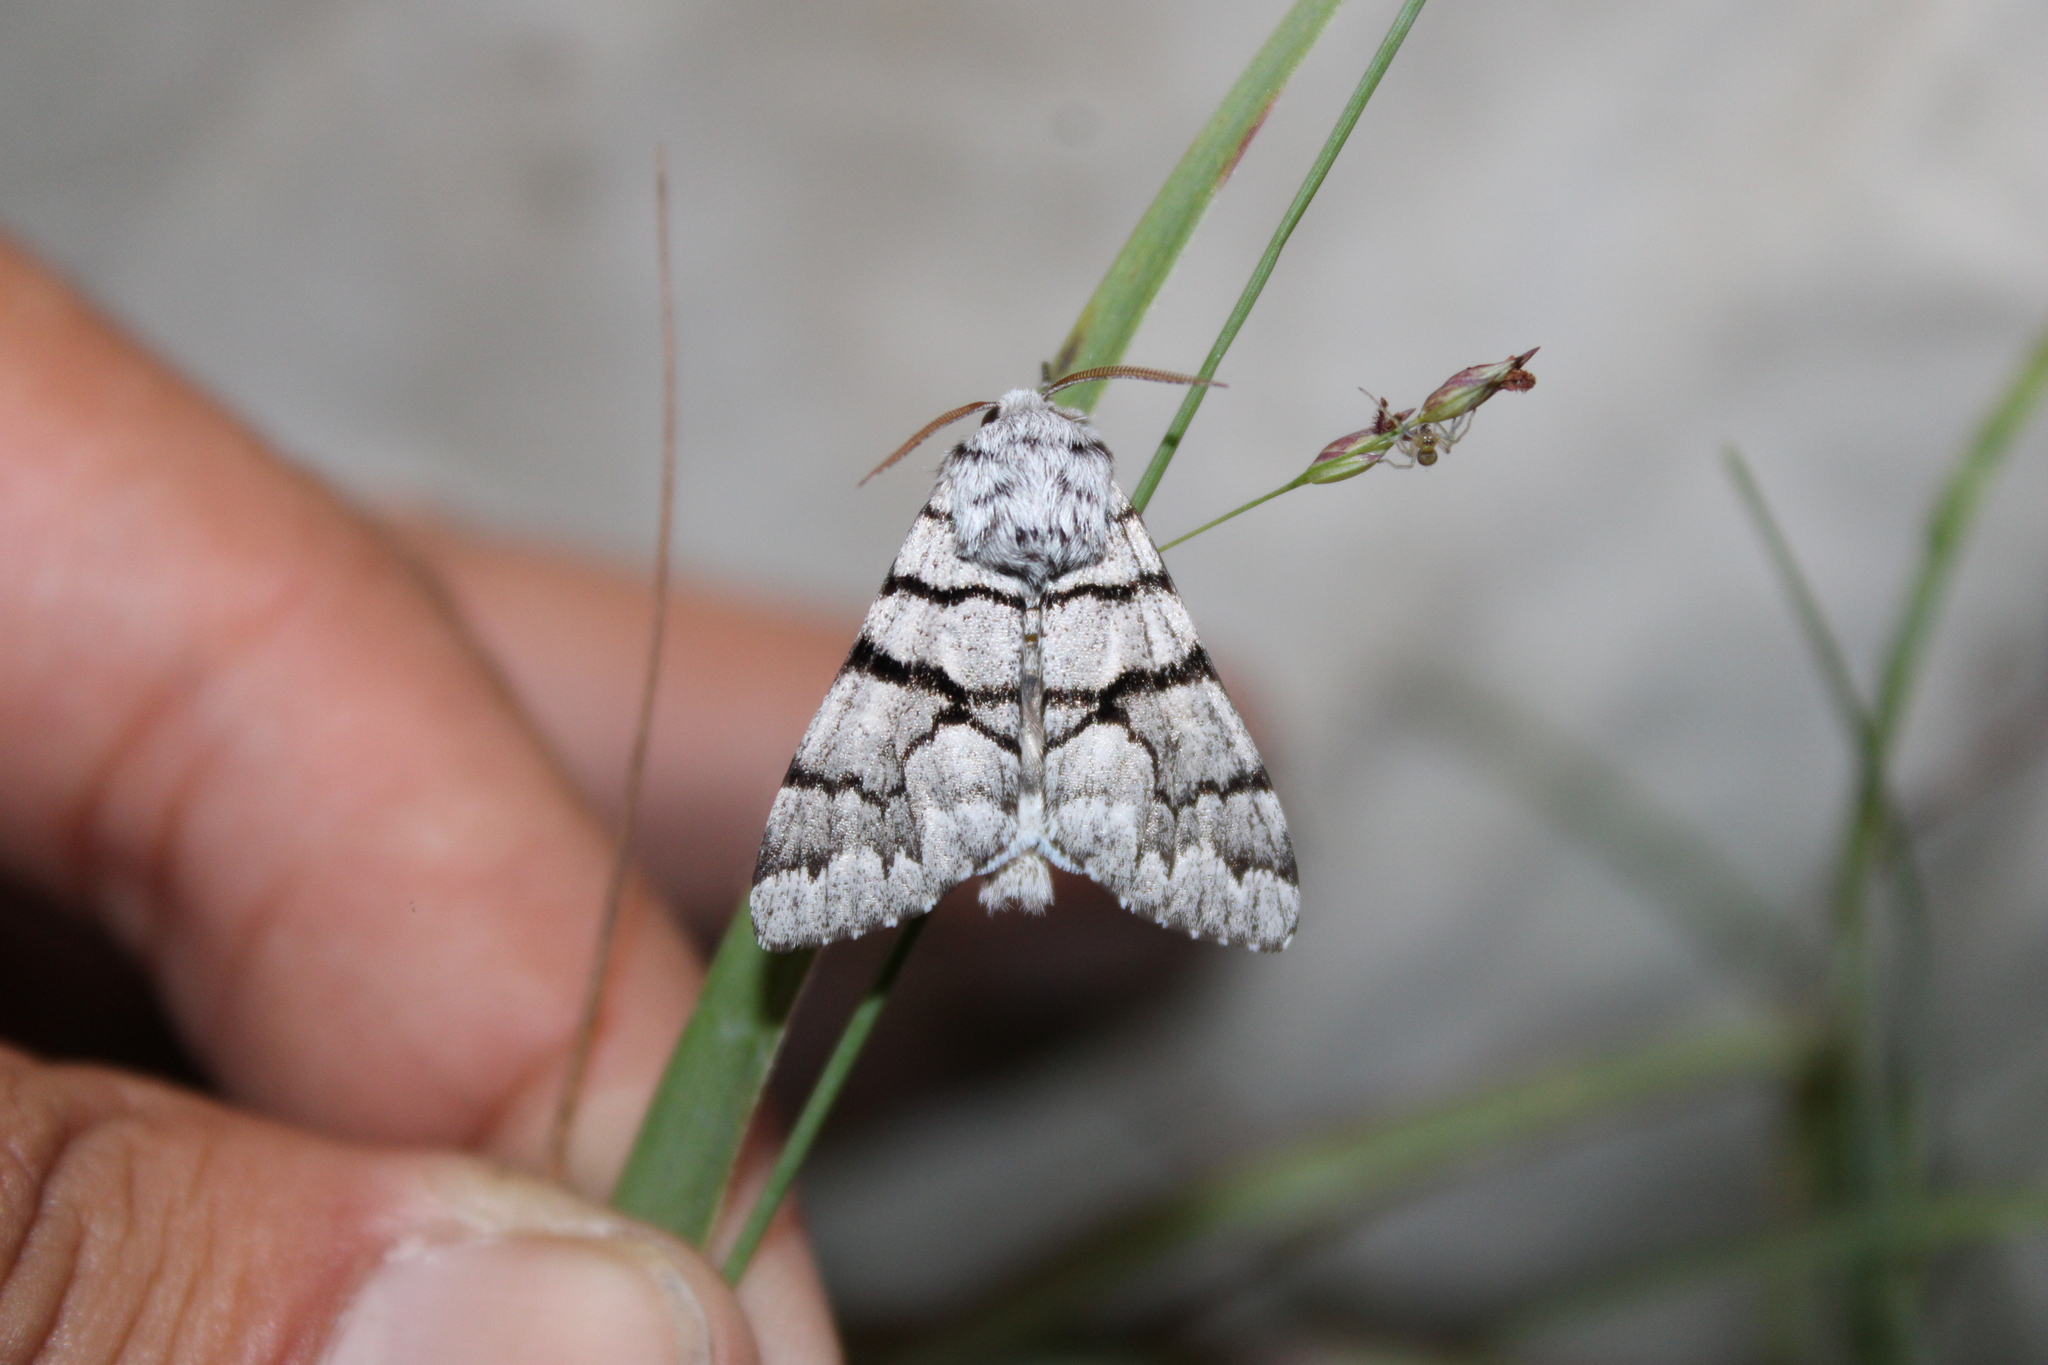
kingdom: Animalia
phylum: Arthropoda
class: Insecta
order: Lepidoptera
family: Noctuidae
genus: Panthea
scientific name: Panthea furcilla
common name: Eastern panthea moth
